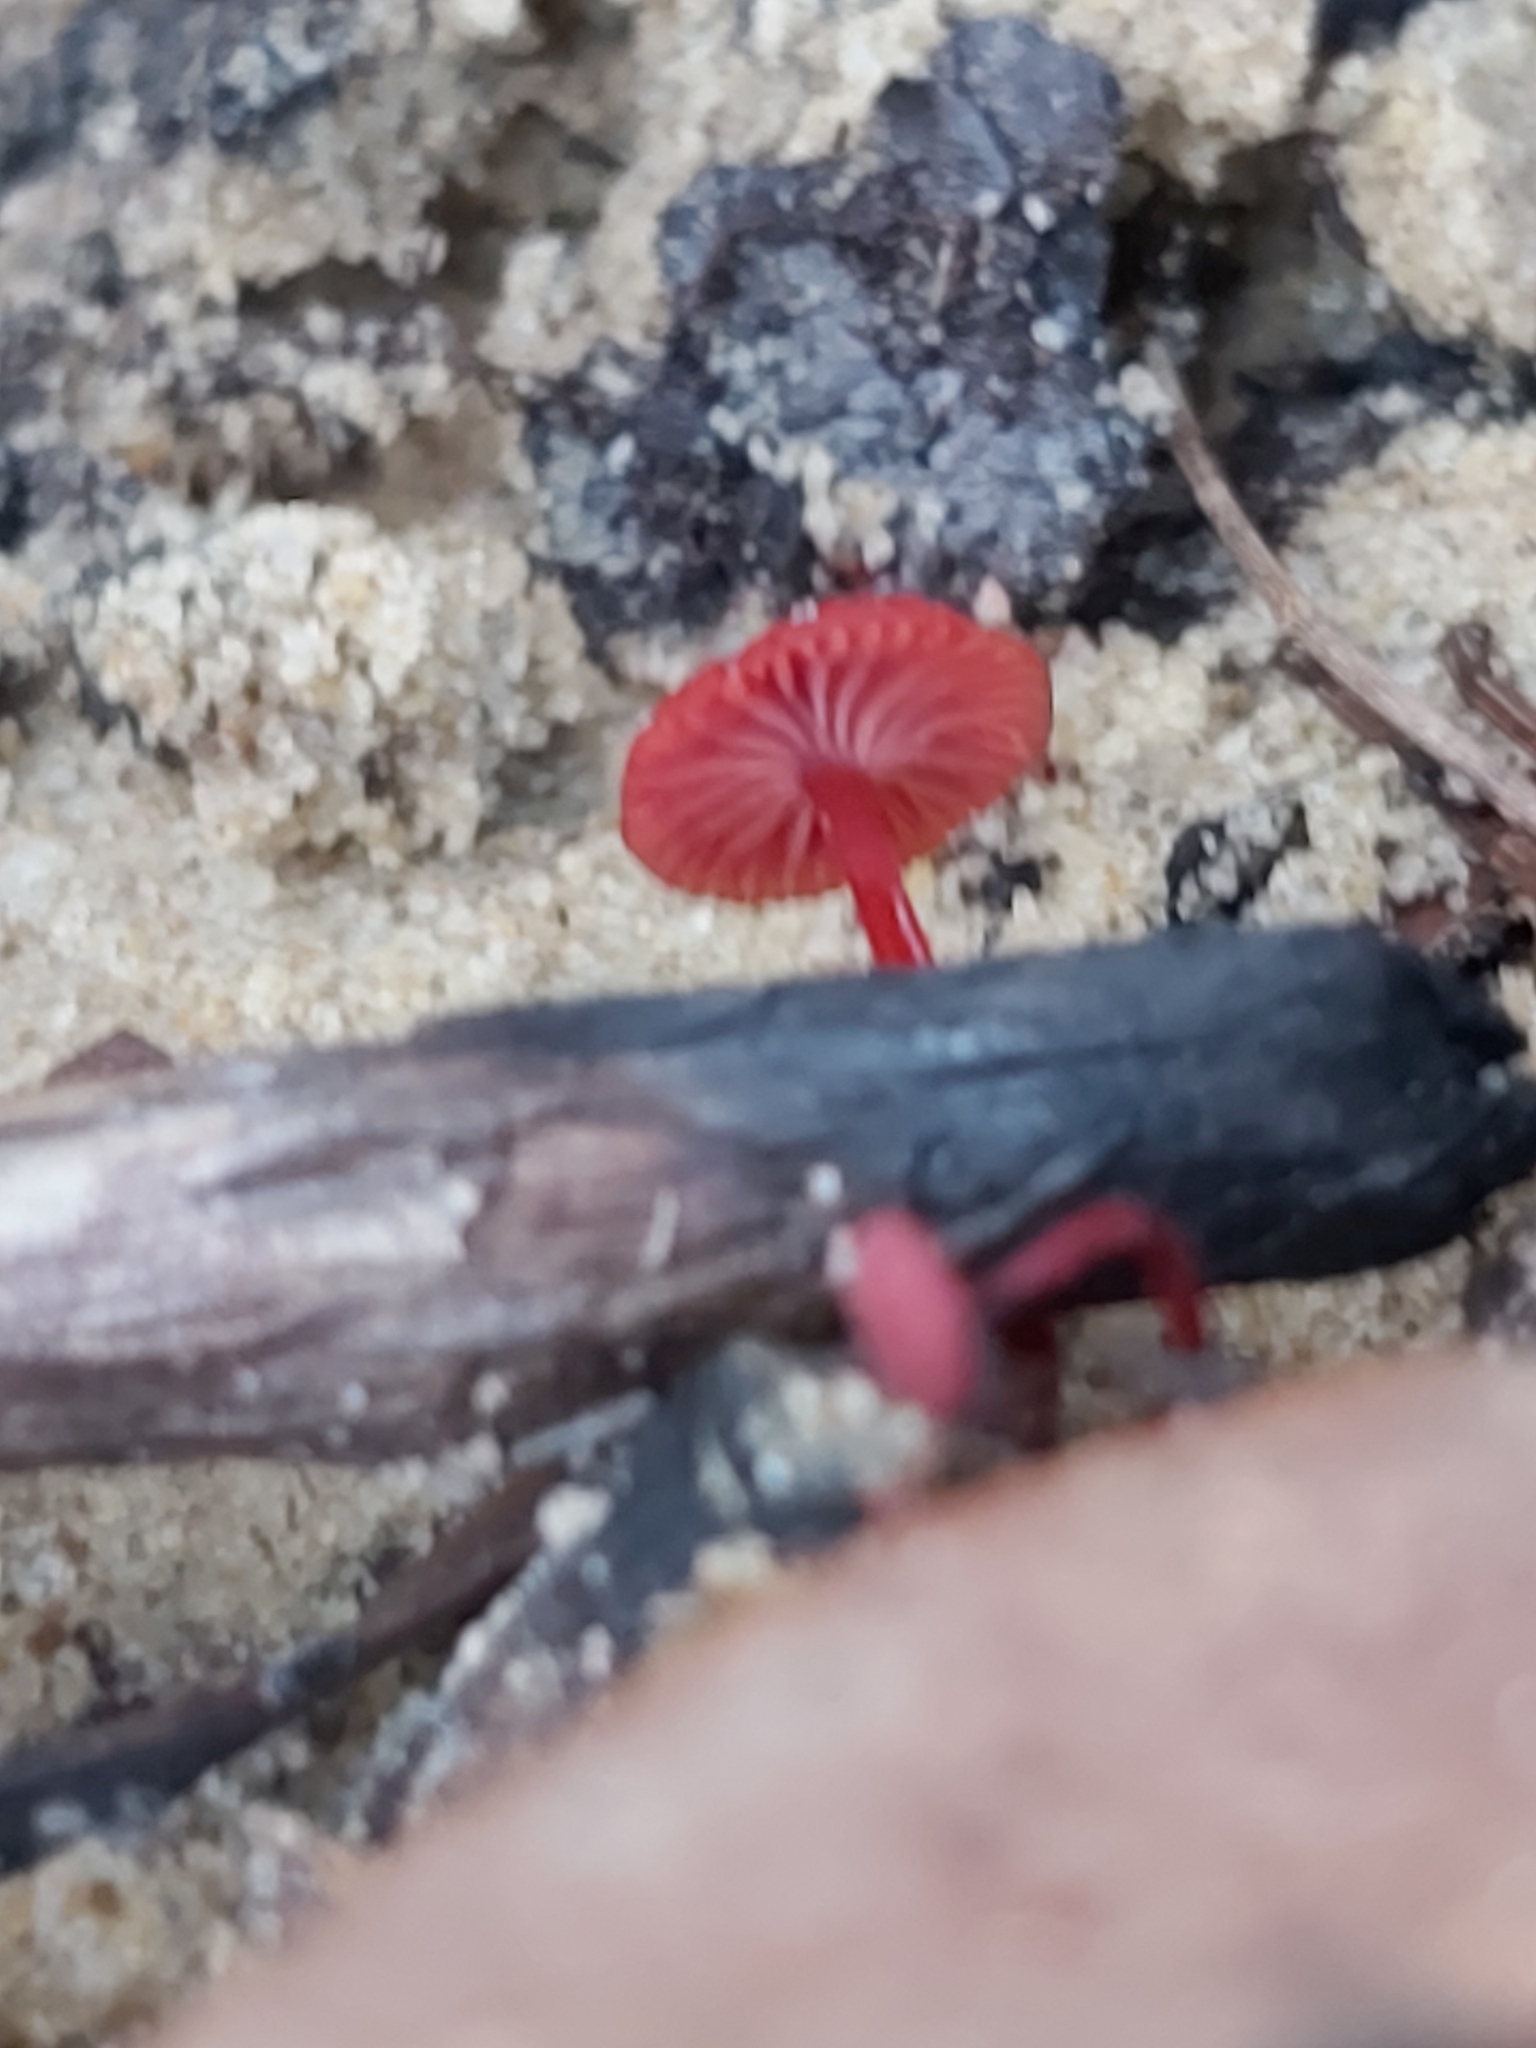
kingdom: Fungi
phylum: Basidiomycota
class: Agaricomycetes
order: Agaricales
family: Mycenaceae
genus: Cruentomycena
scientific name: Cruentomycena viscidocruenta
